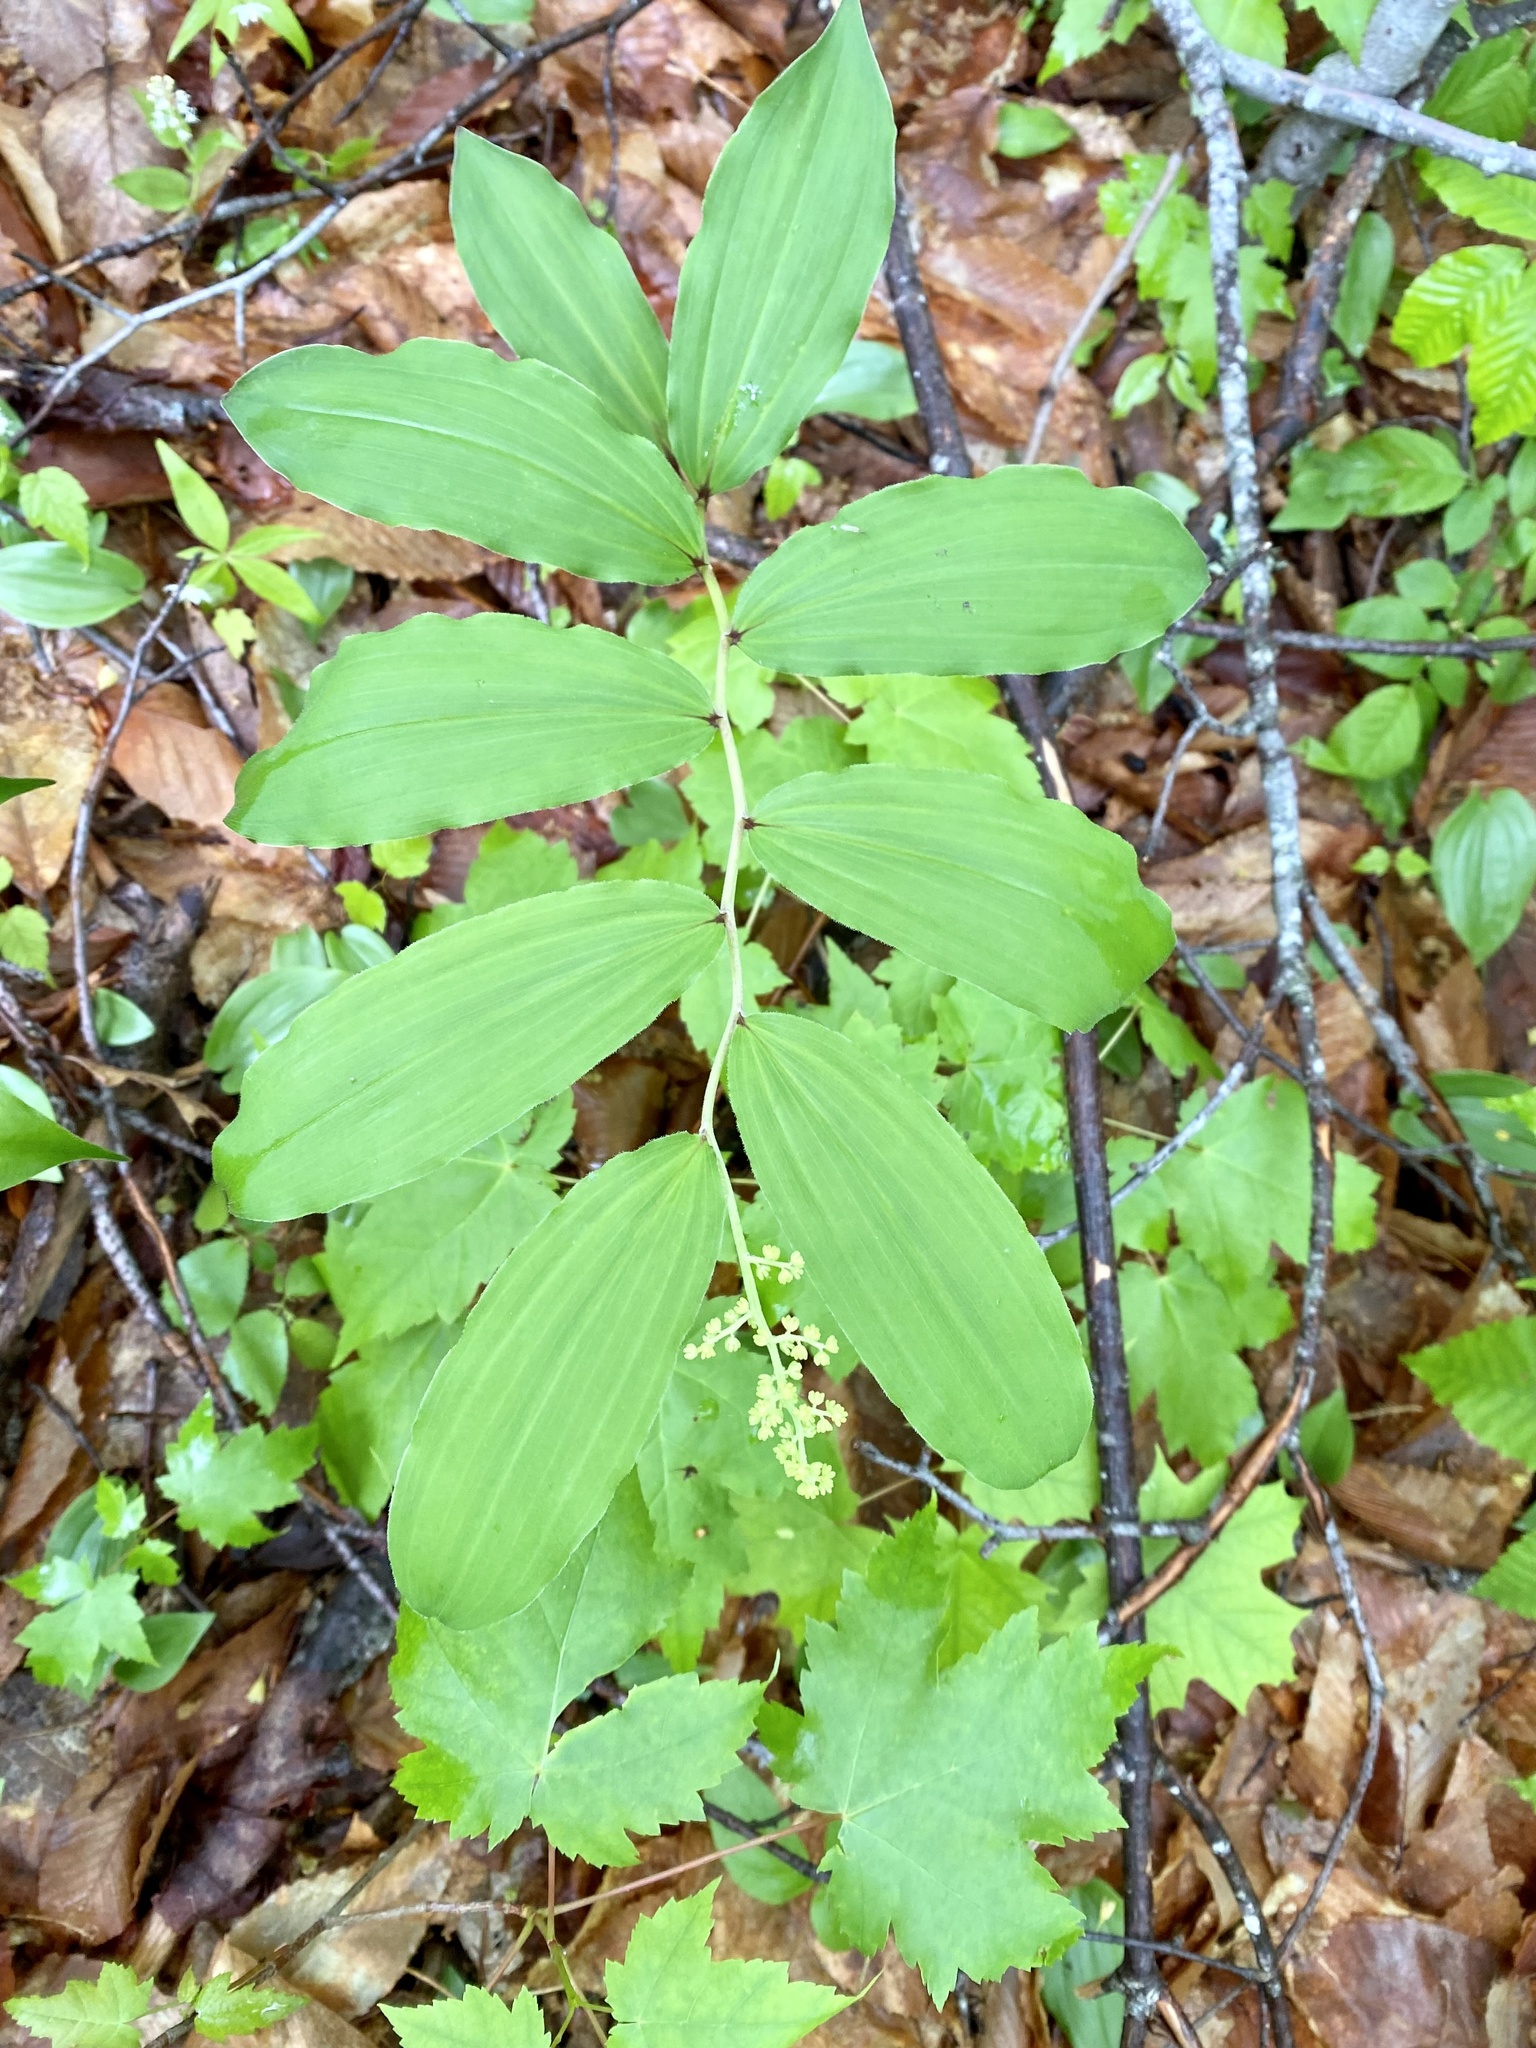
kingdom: Plantae
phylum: Tracheophyta
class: Liliopsida
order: Asparagales
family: Asparagaceae
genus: Maianthemum
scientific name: Maianthemum racemosum
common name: False spikenard
